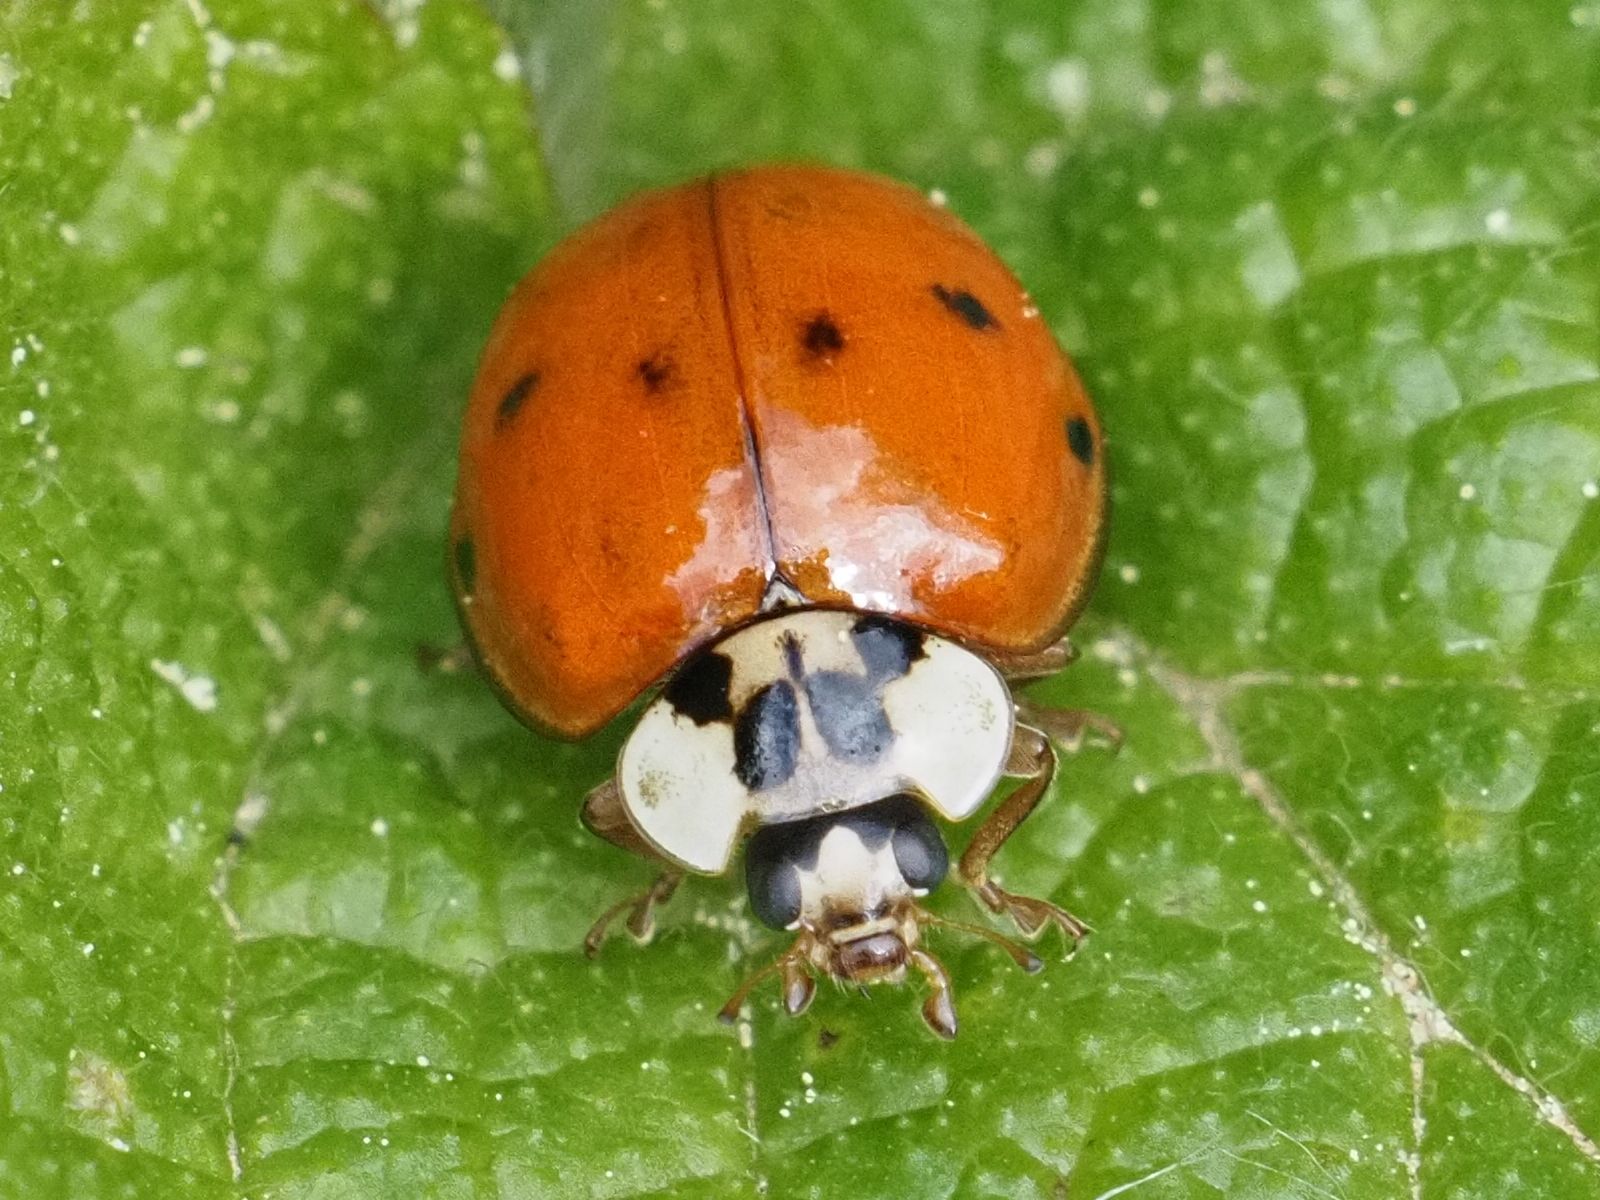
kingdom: Animalia
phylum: Arthropoda
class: Insecta
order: Coleoptera
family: Coccinellidae
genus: Harmonia
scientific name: Harmonia axyridis
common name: Harlequin ladybird
